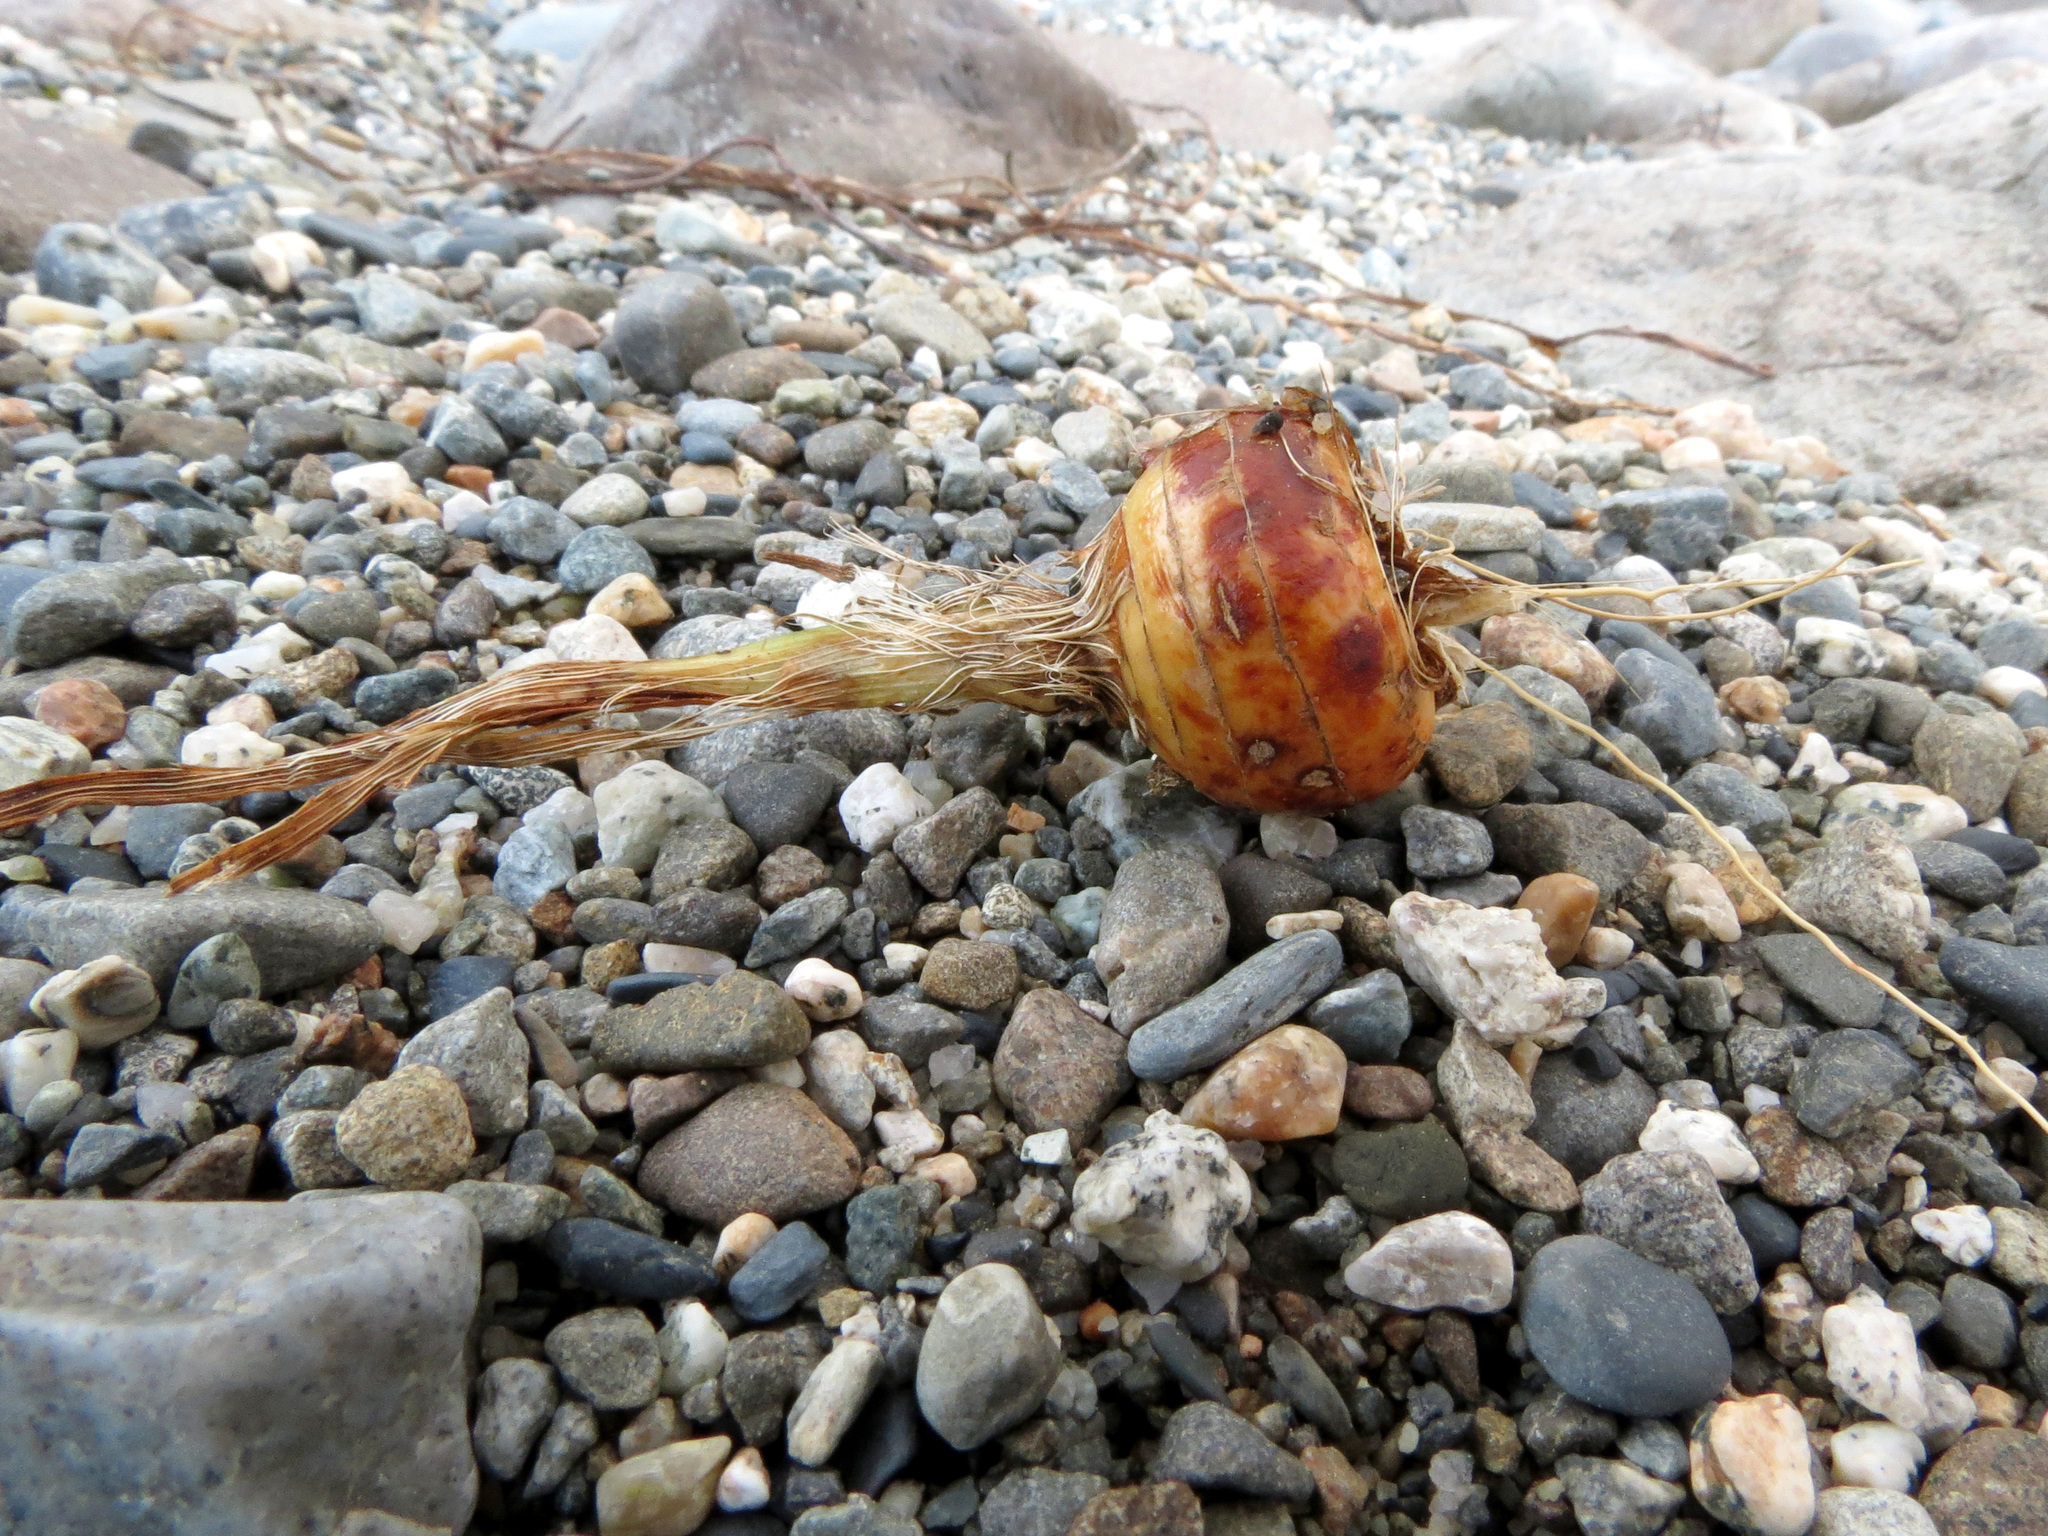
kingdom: Plantae
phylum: Tracheophyta
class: Liliopsida
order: Asparagales
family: Iridaceae
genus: Crocosmia
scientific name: Crocosmia crocosmiiflora
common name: Montbretia
